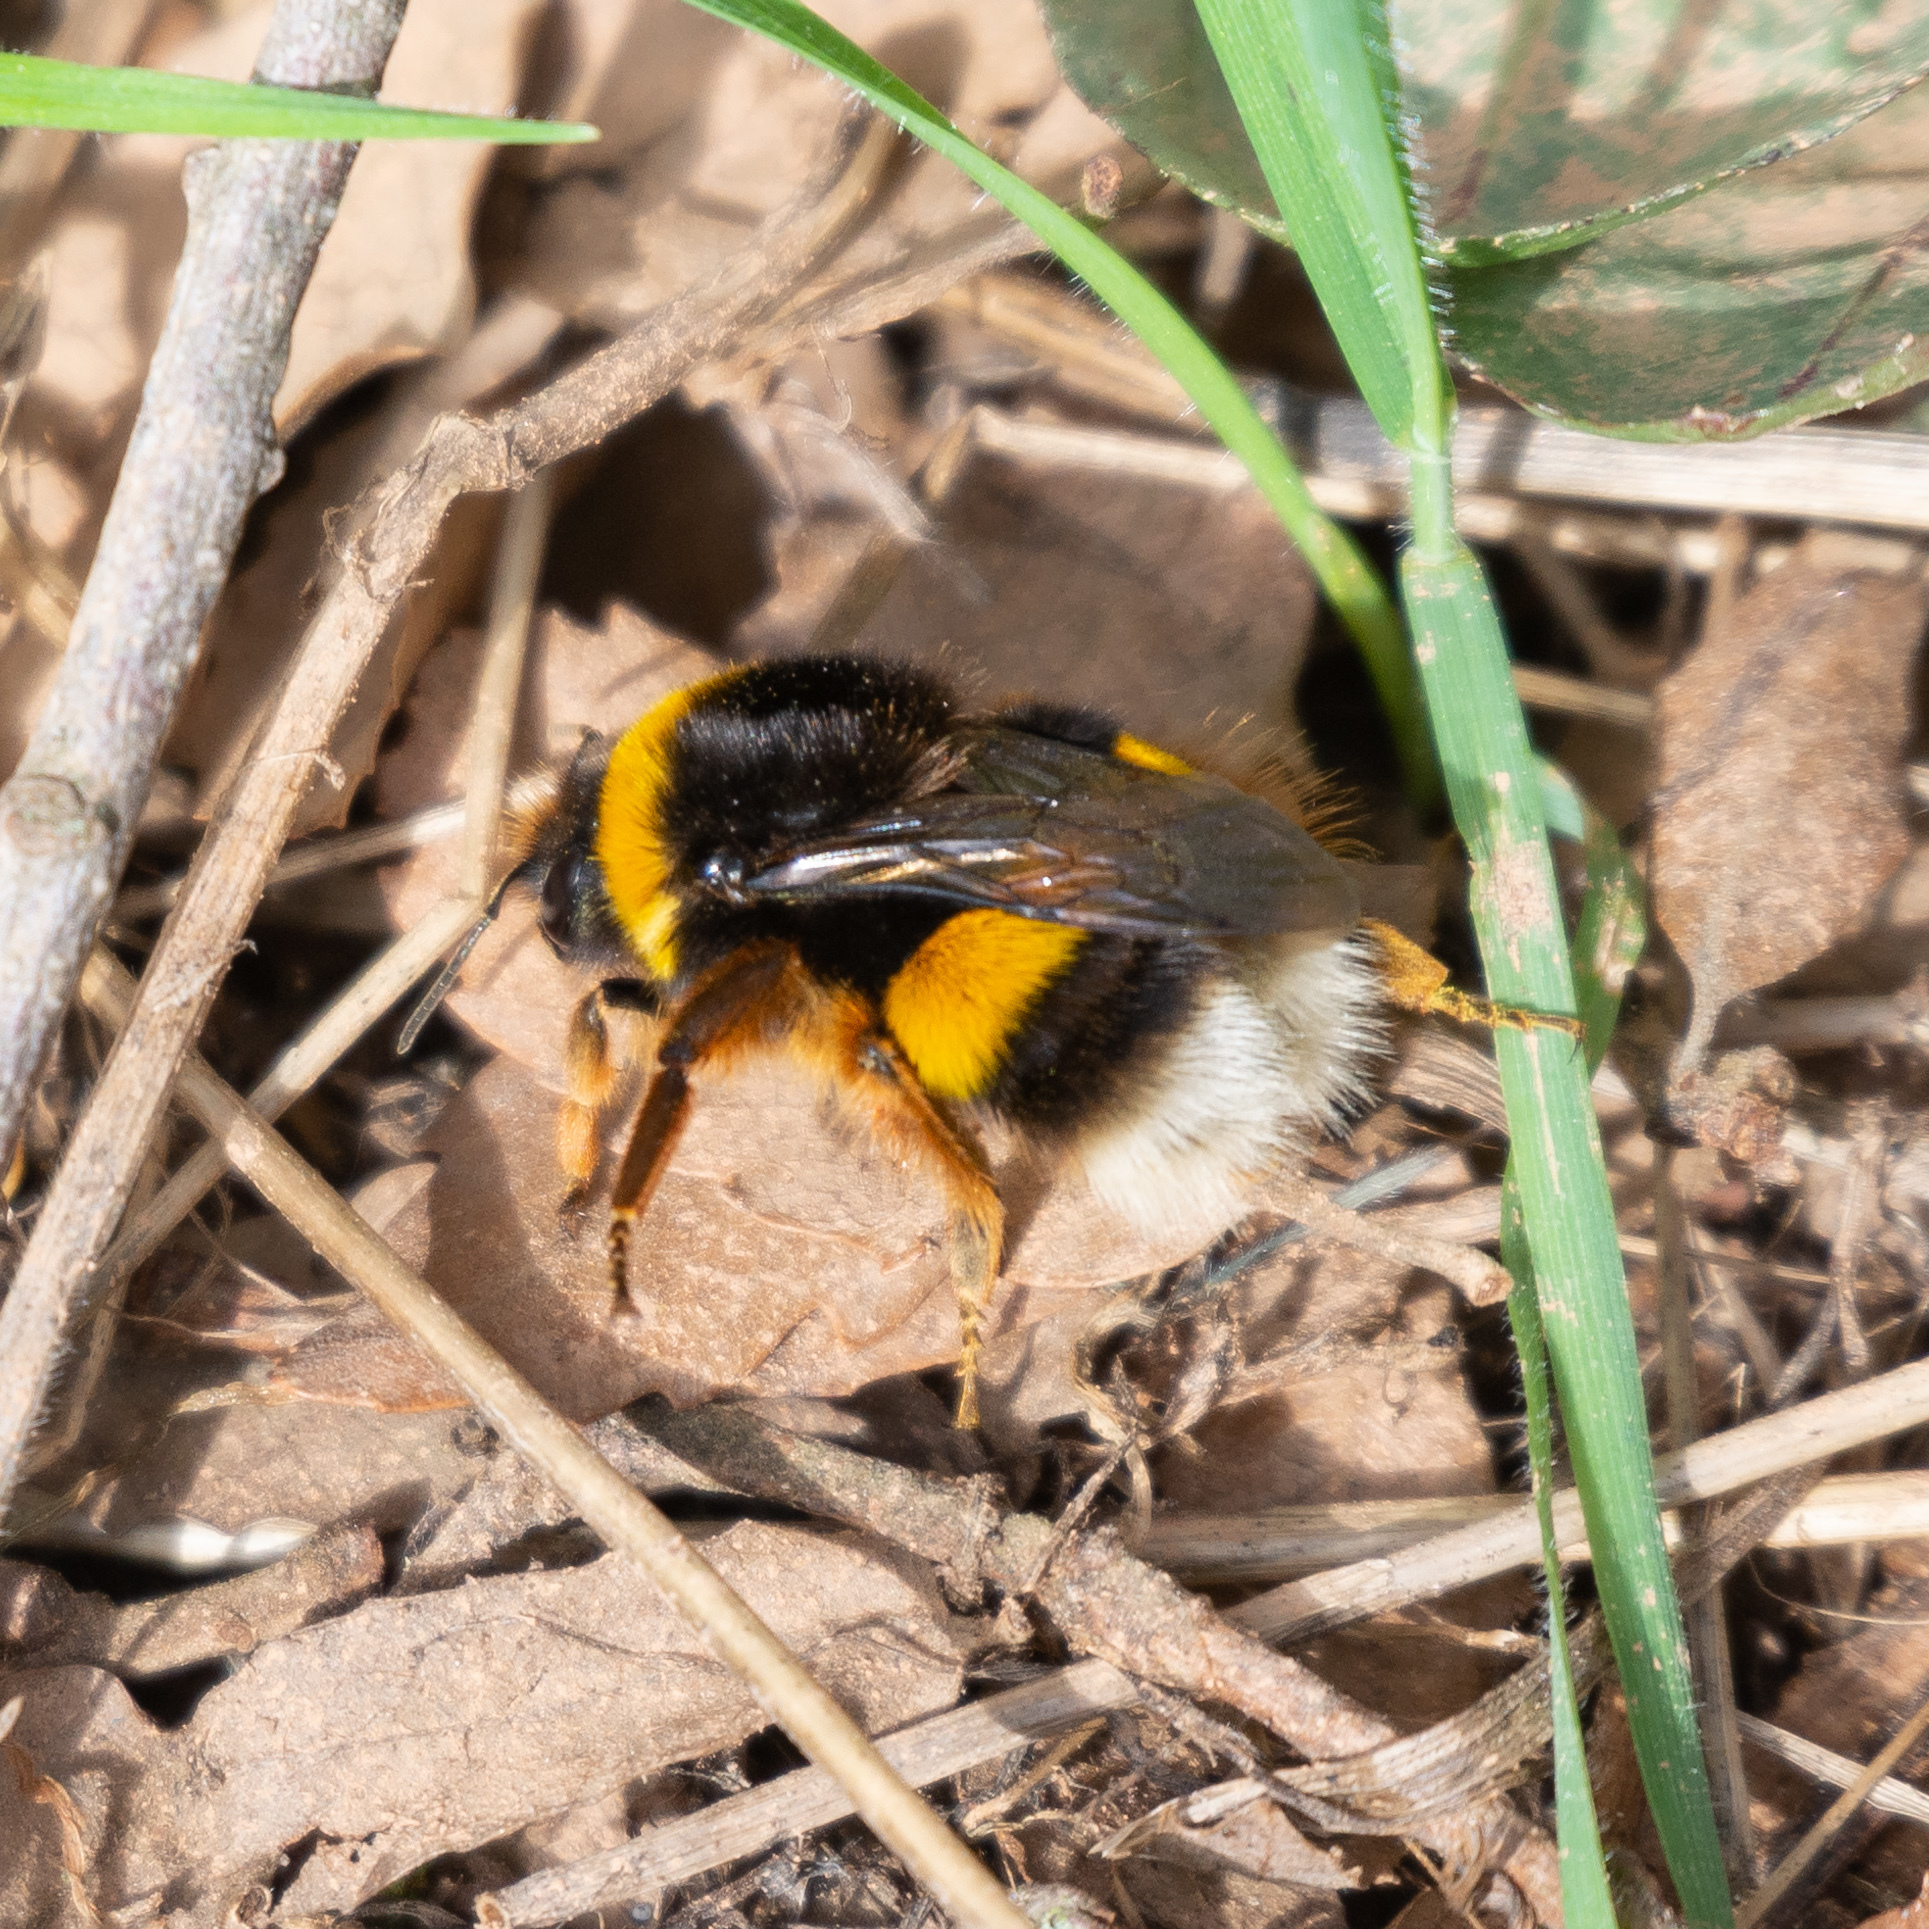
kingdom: Animalia
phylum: Arthropoda
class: Insecta
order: Hymenoptera
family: Apidae
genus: Bombus
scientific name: Bombus terrestris
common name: Buff-tailed bumblebee
